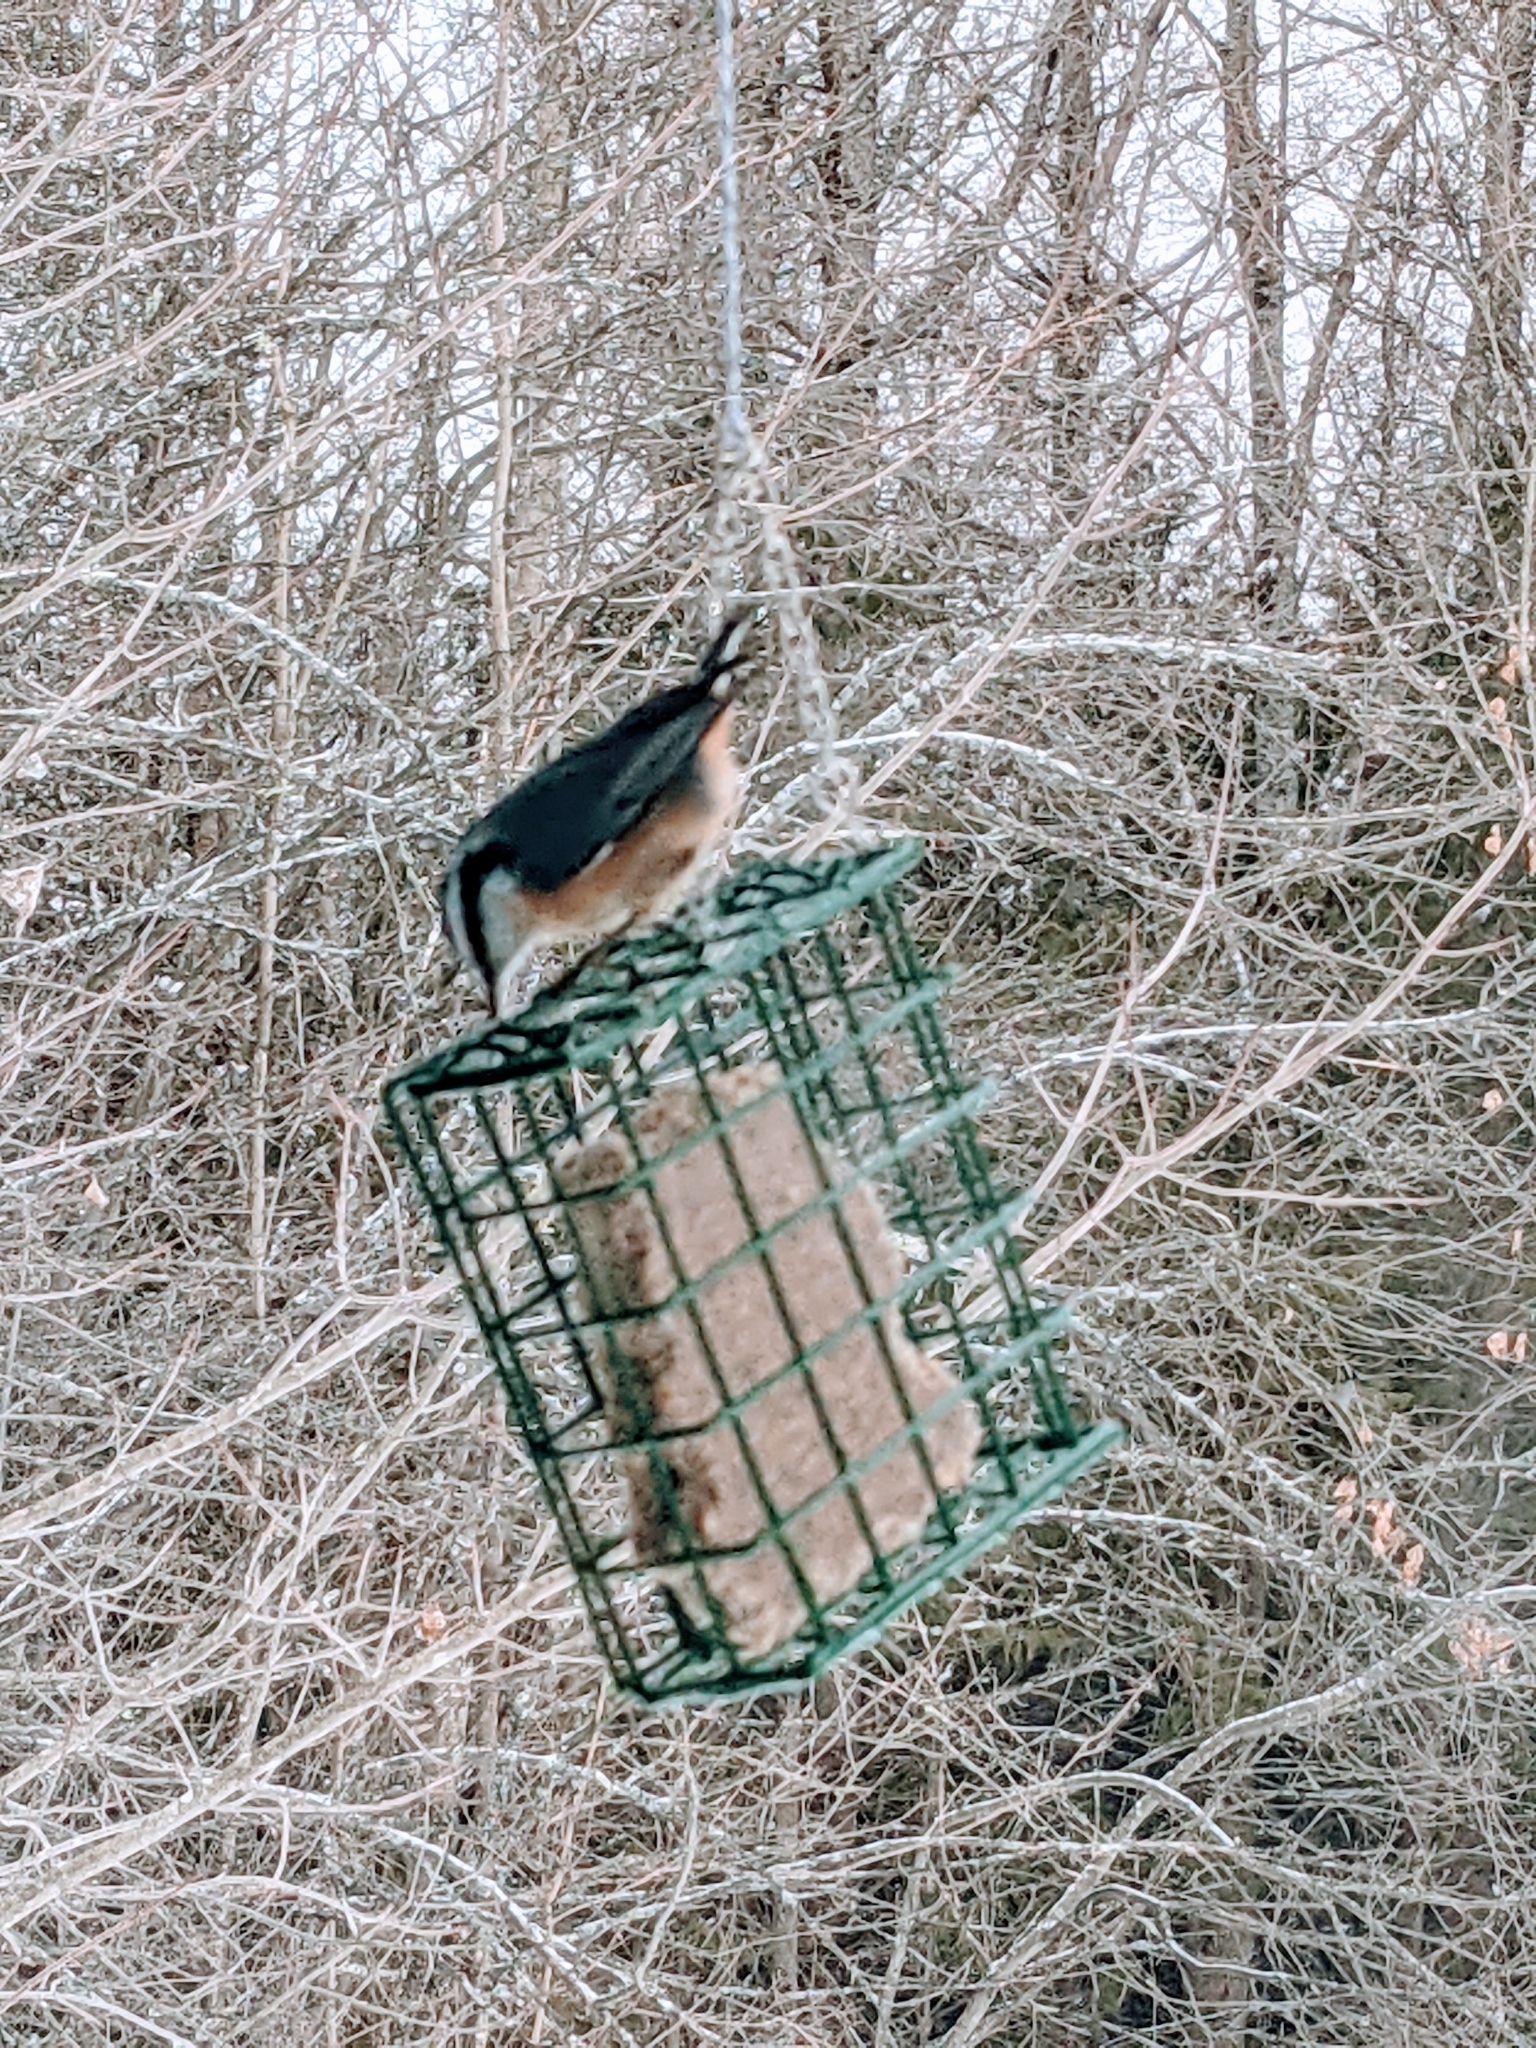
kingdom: Animalia
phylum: Chordata
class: Aves
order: Passeriformes
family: Sittidae
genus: Sitta
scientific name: Sitta canadensis
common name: Red-breasted nuthatch
